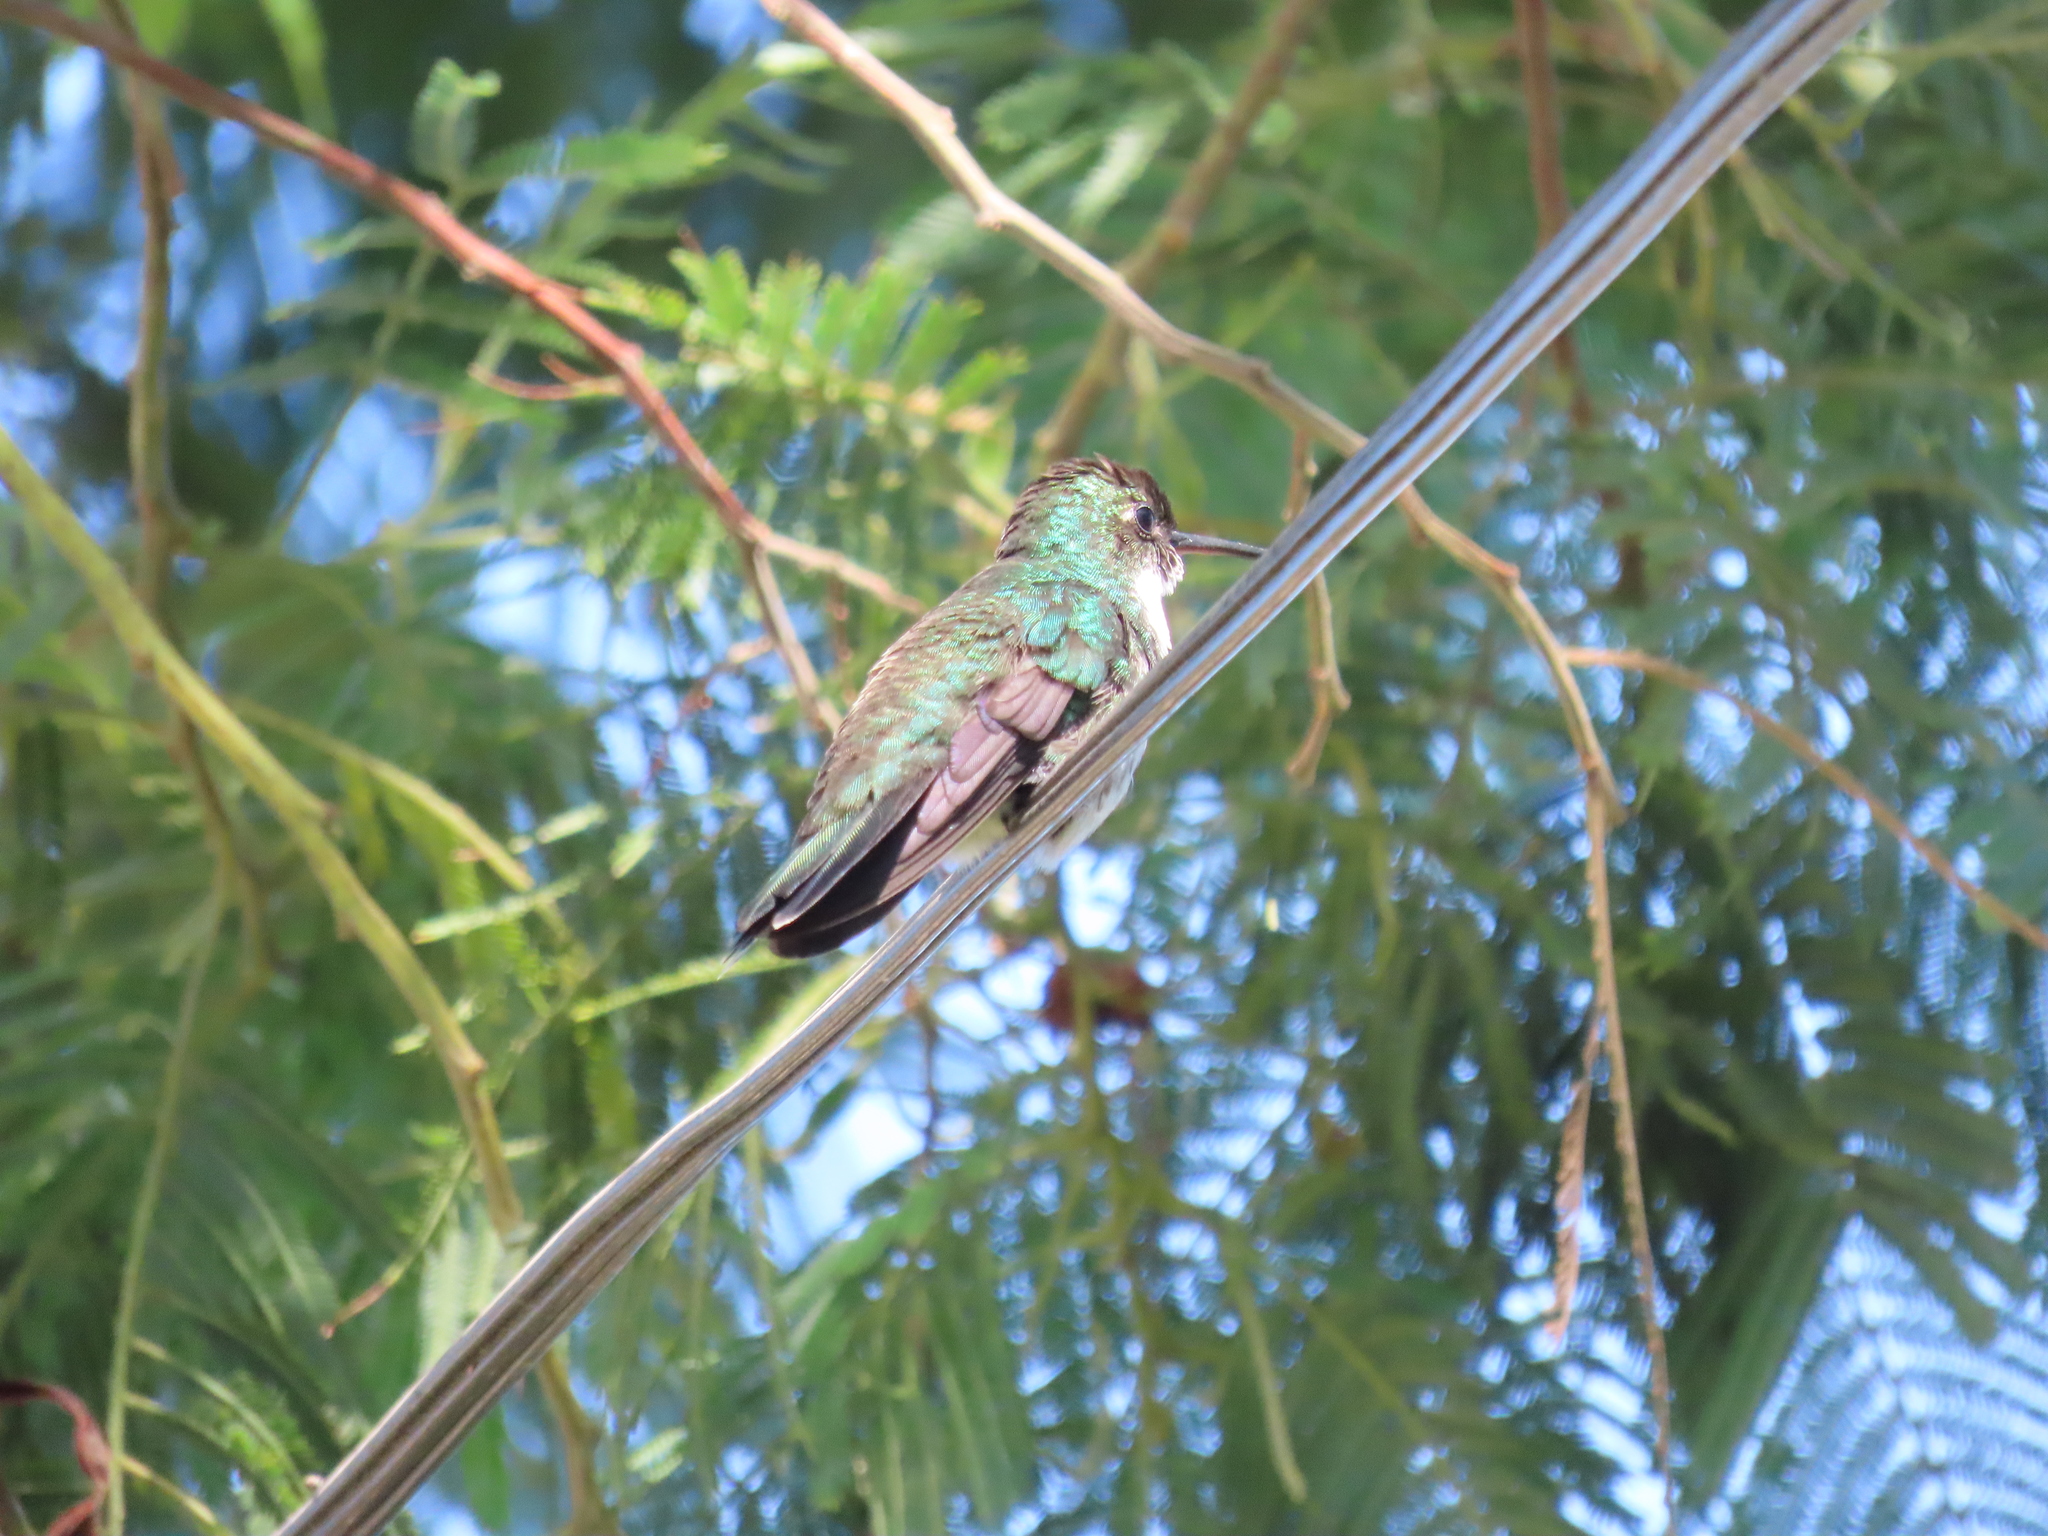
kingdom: Animalia
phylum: Chordata
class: Aves
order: Apodiformes
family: Trochilidae
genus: Leucochloris
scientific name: Leucochloris albicollis
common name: White-throated hummingbird
